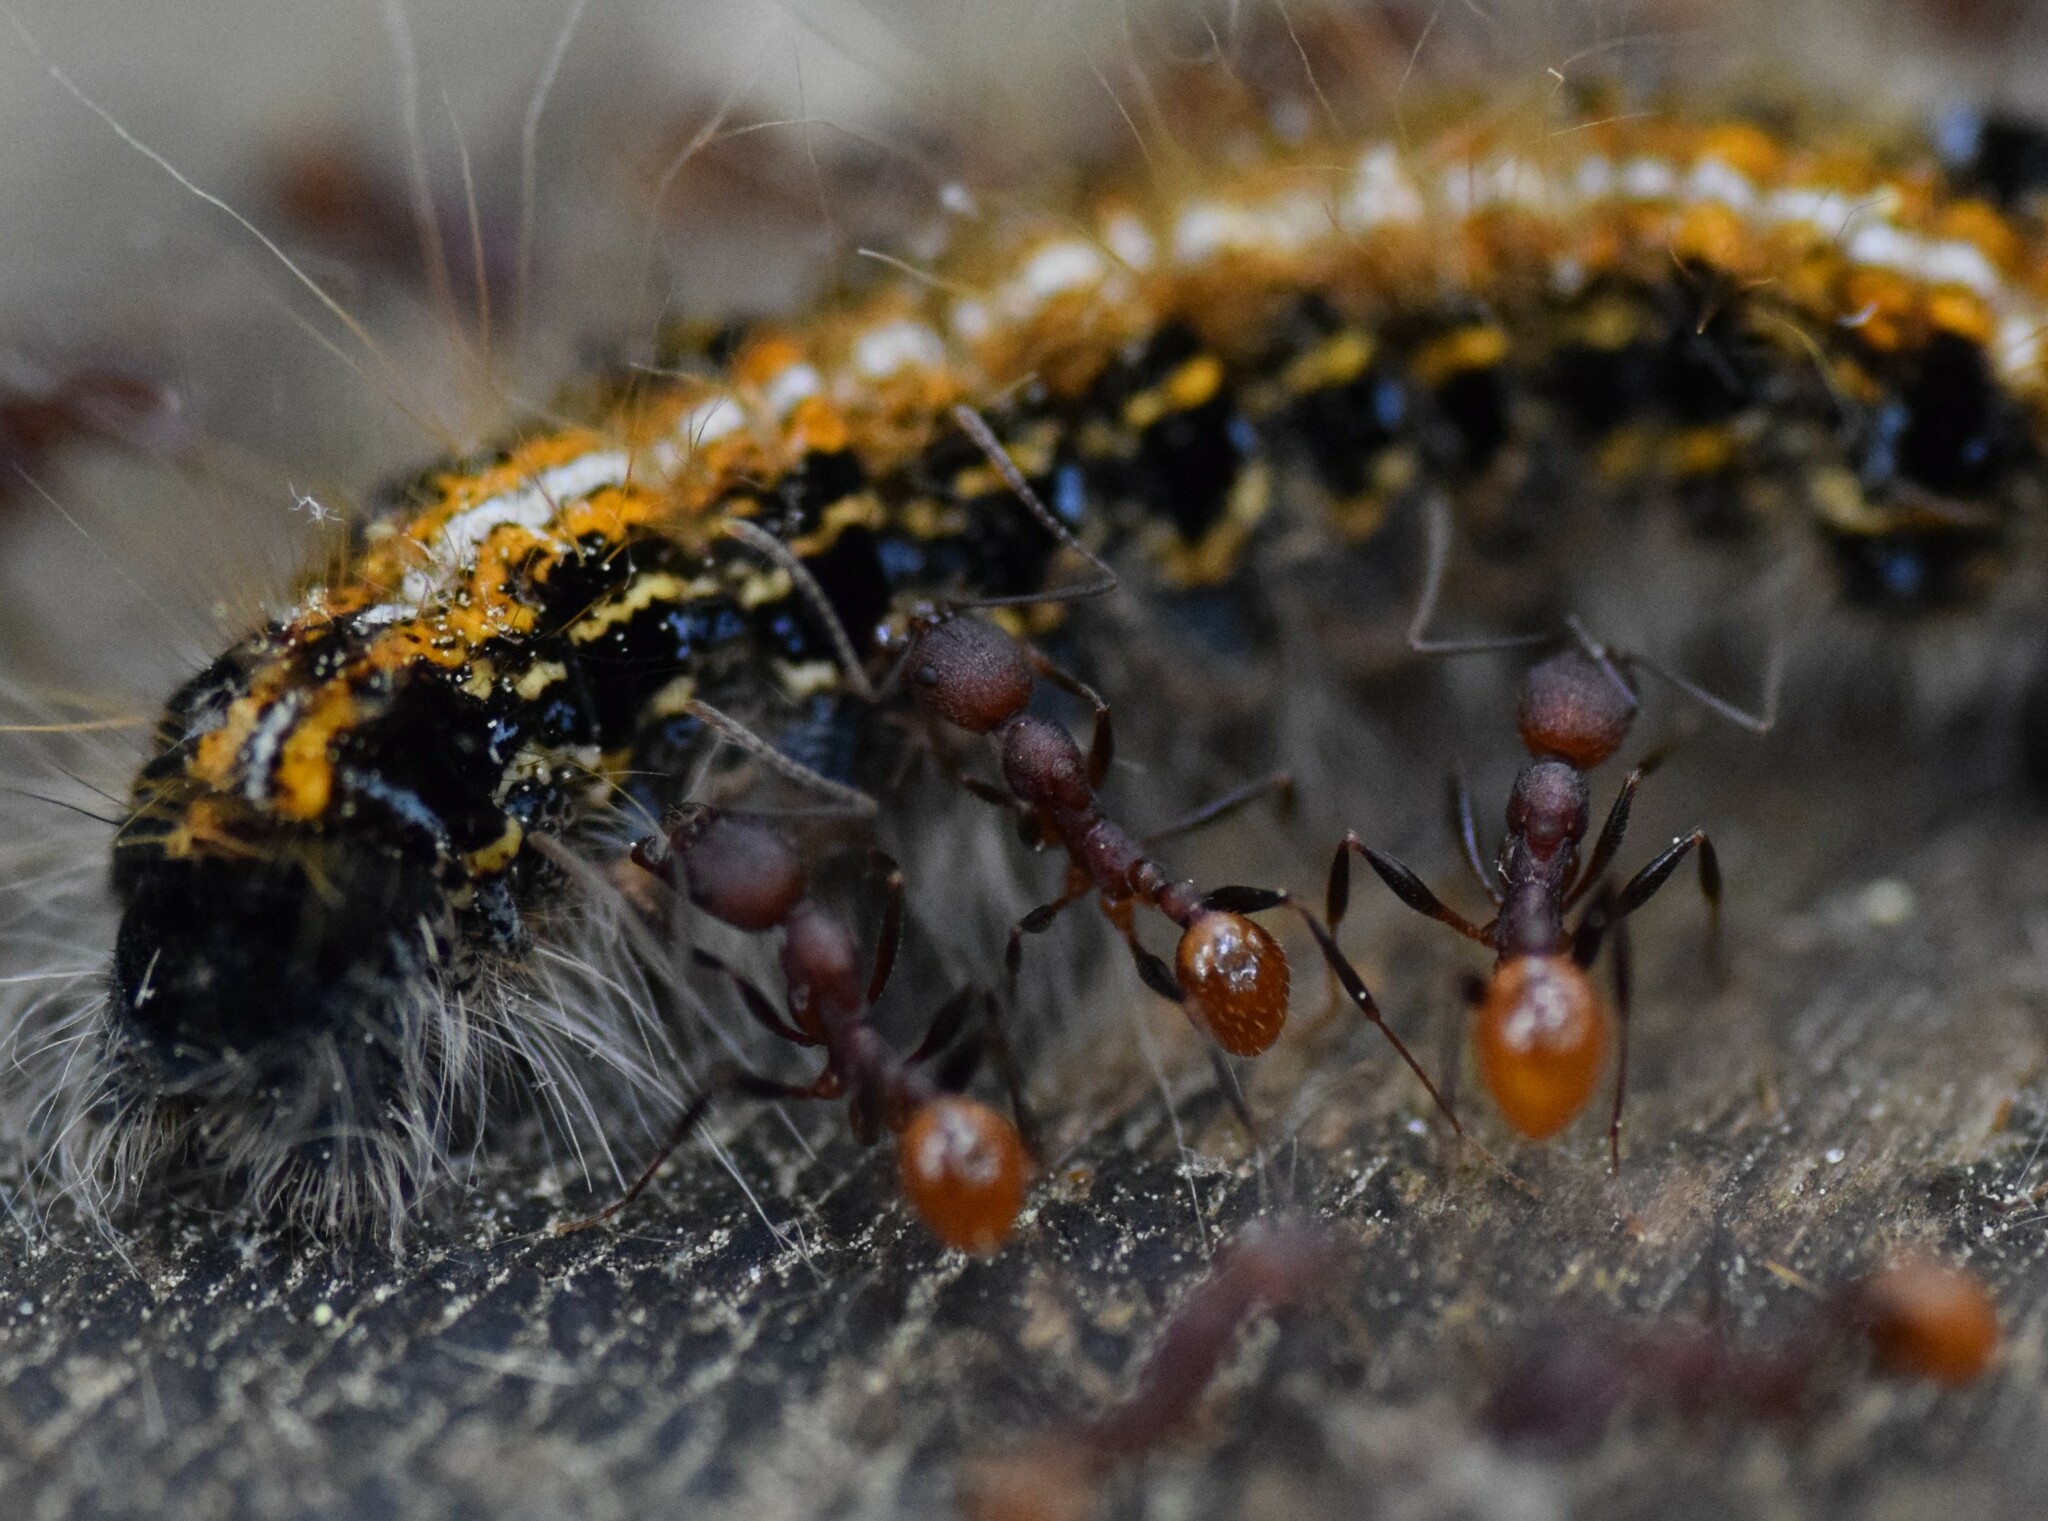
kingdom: Animalia
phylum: Arthropoda
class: Insecta
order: Hymenoptera
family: Formicidae
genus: Aphaenogaster
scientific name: Aphaenogaster lamellidens
